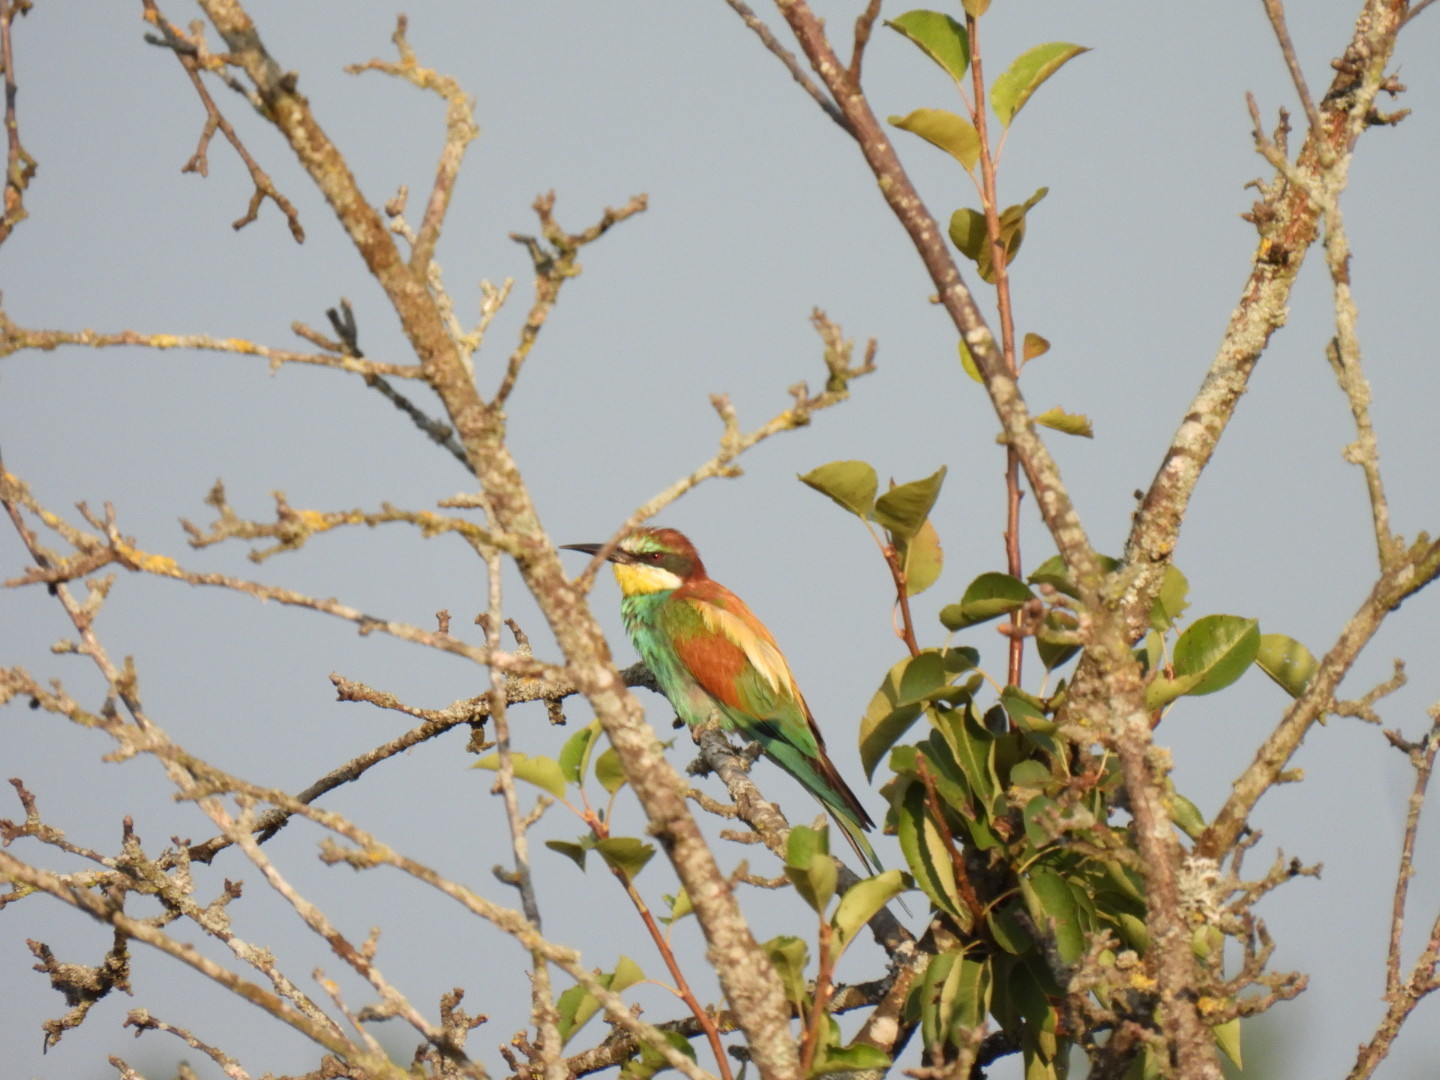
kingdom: Animalia
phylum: Chordata
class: Aves
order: Coraciiformes
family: Meropidae
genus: Merops
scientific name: Merops apiaster
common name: European bee-eater
